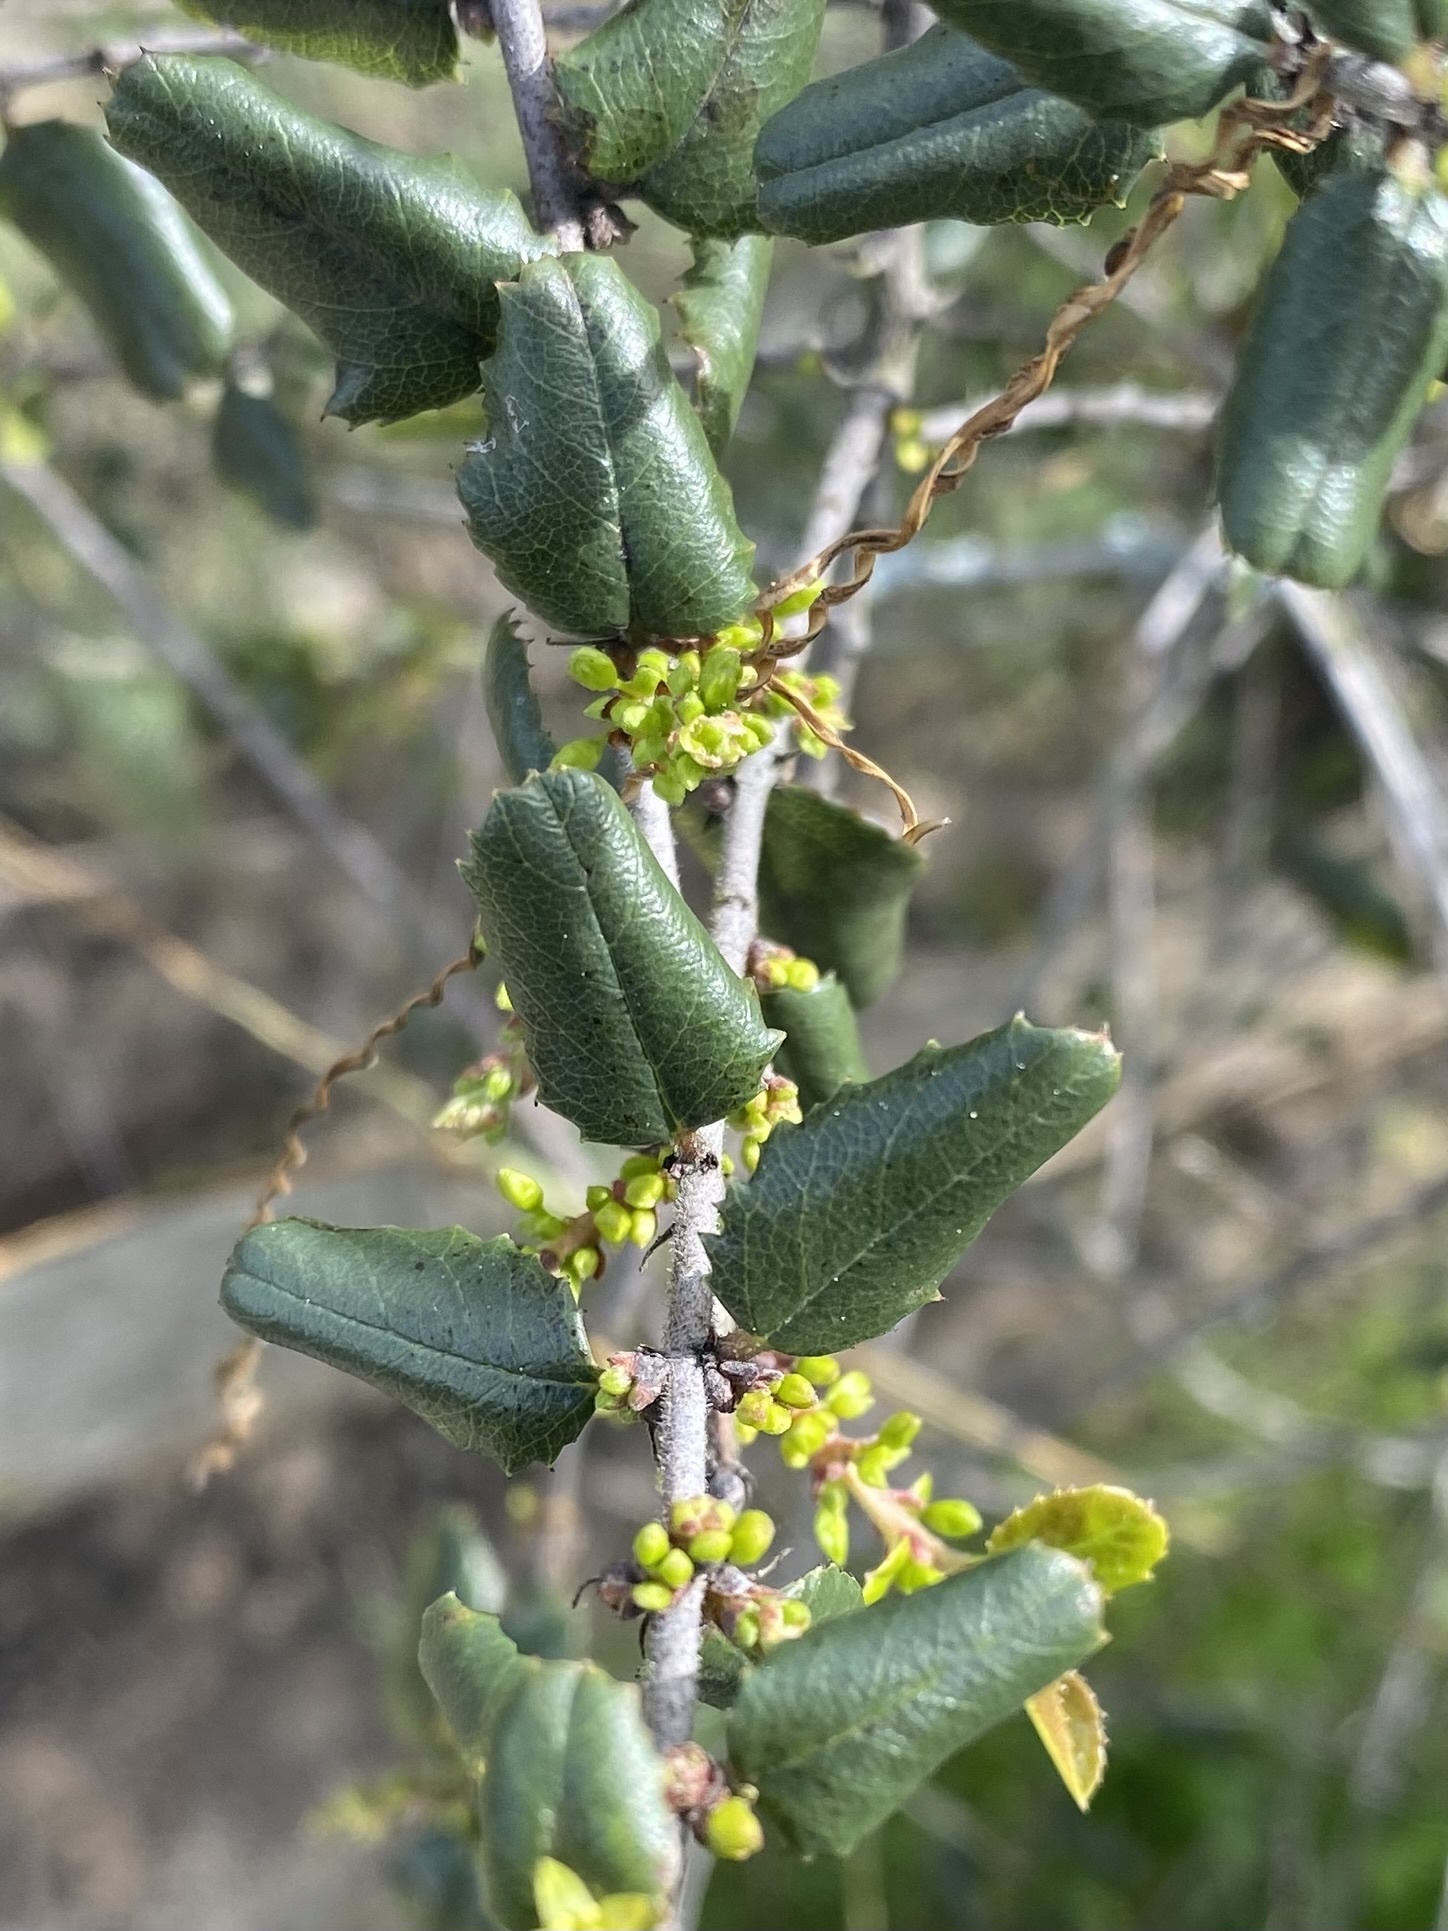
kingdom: Plantae
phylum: Tracheophyta
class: Magnoliopsida
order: Rosales
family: Rhamnaceae
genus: Endotropis
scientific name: Endotropis crocea
